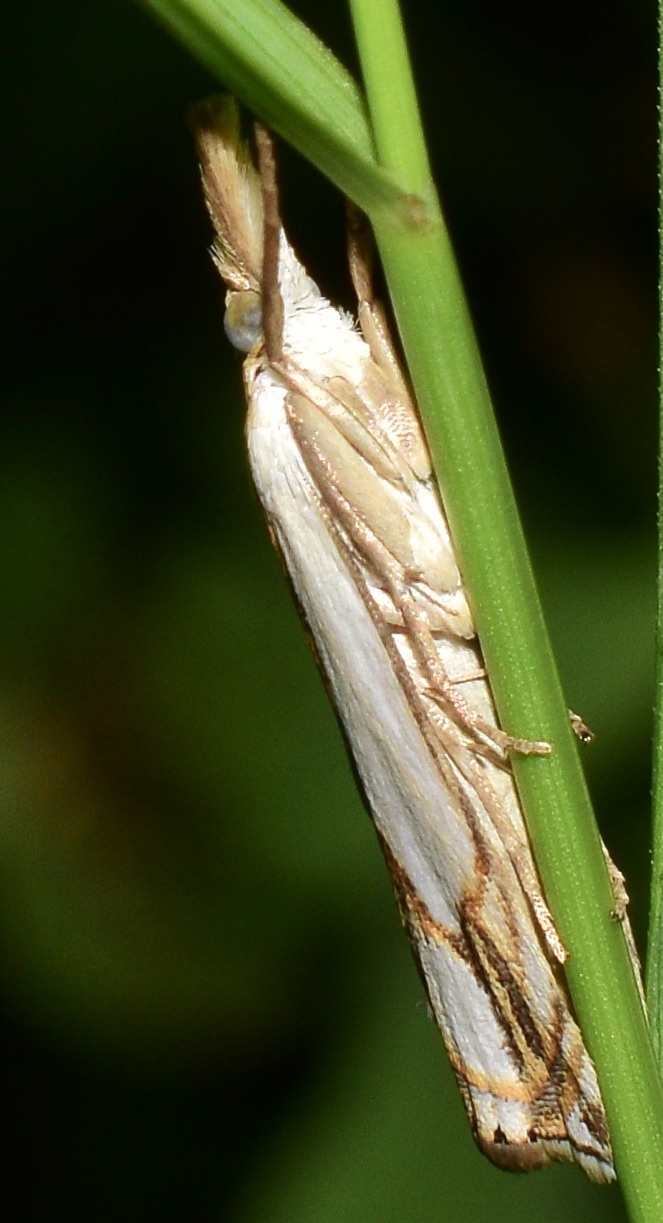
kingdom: Animalia
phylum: Arthropoda
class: Insecta
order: Lepidoptera
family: Crambidae
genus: Crambus
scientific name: Crambus agitatellus
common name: Double-banded grass-veneer
